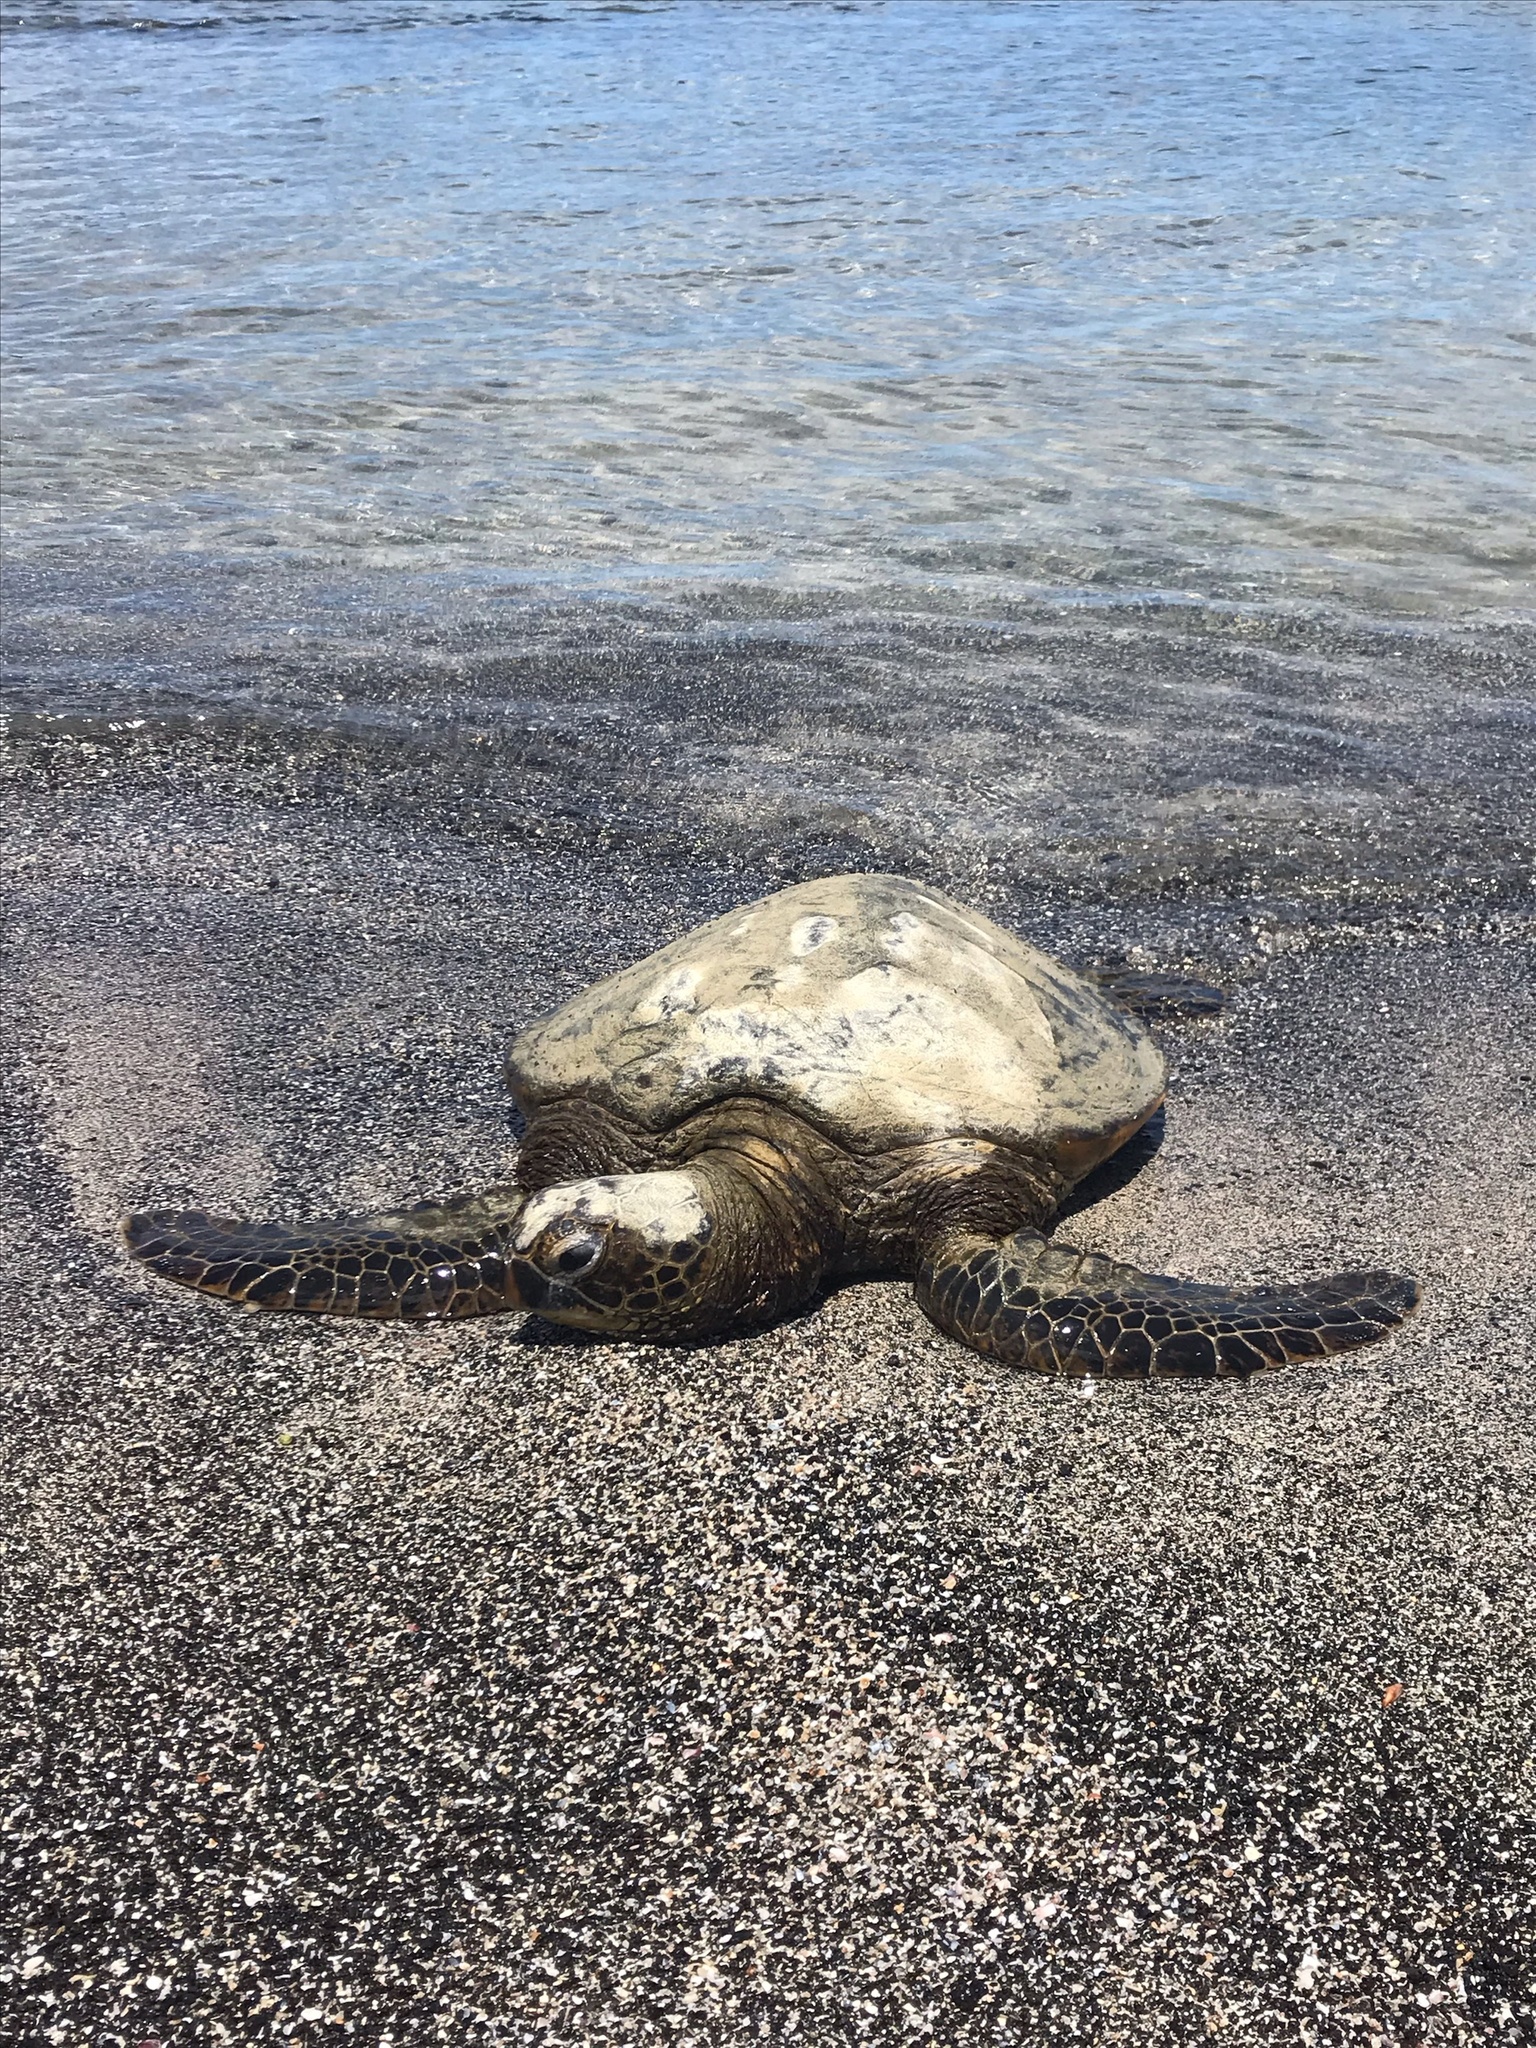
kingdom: Animalia
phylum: Chordata
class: Testudines
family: Cheloniidae
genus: Chelonia
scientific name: Chelonia mydas
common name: Green turtle
